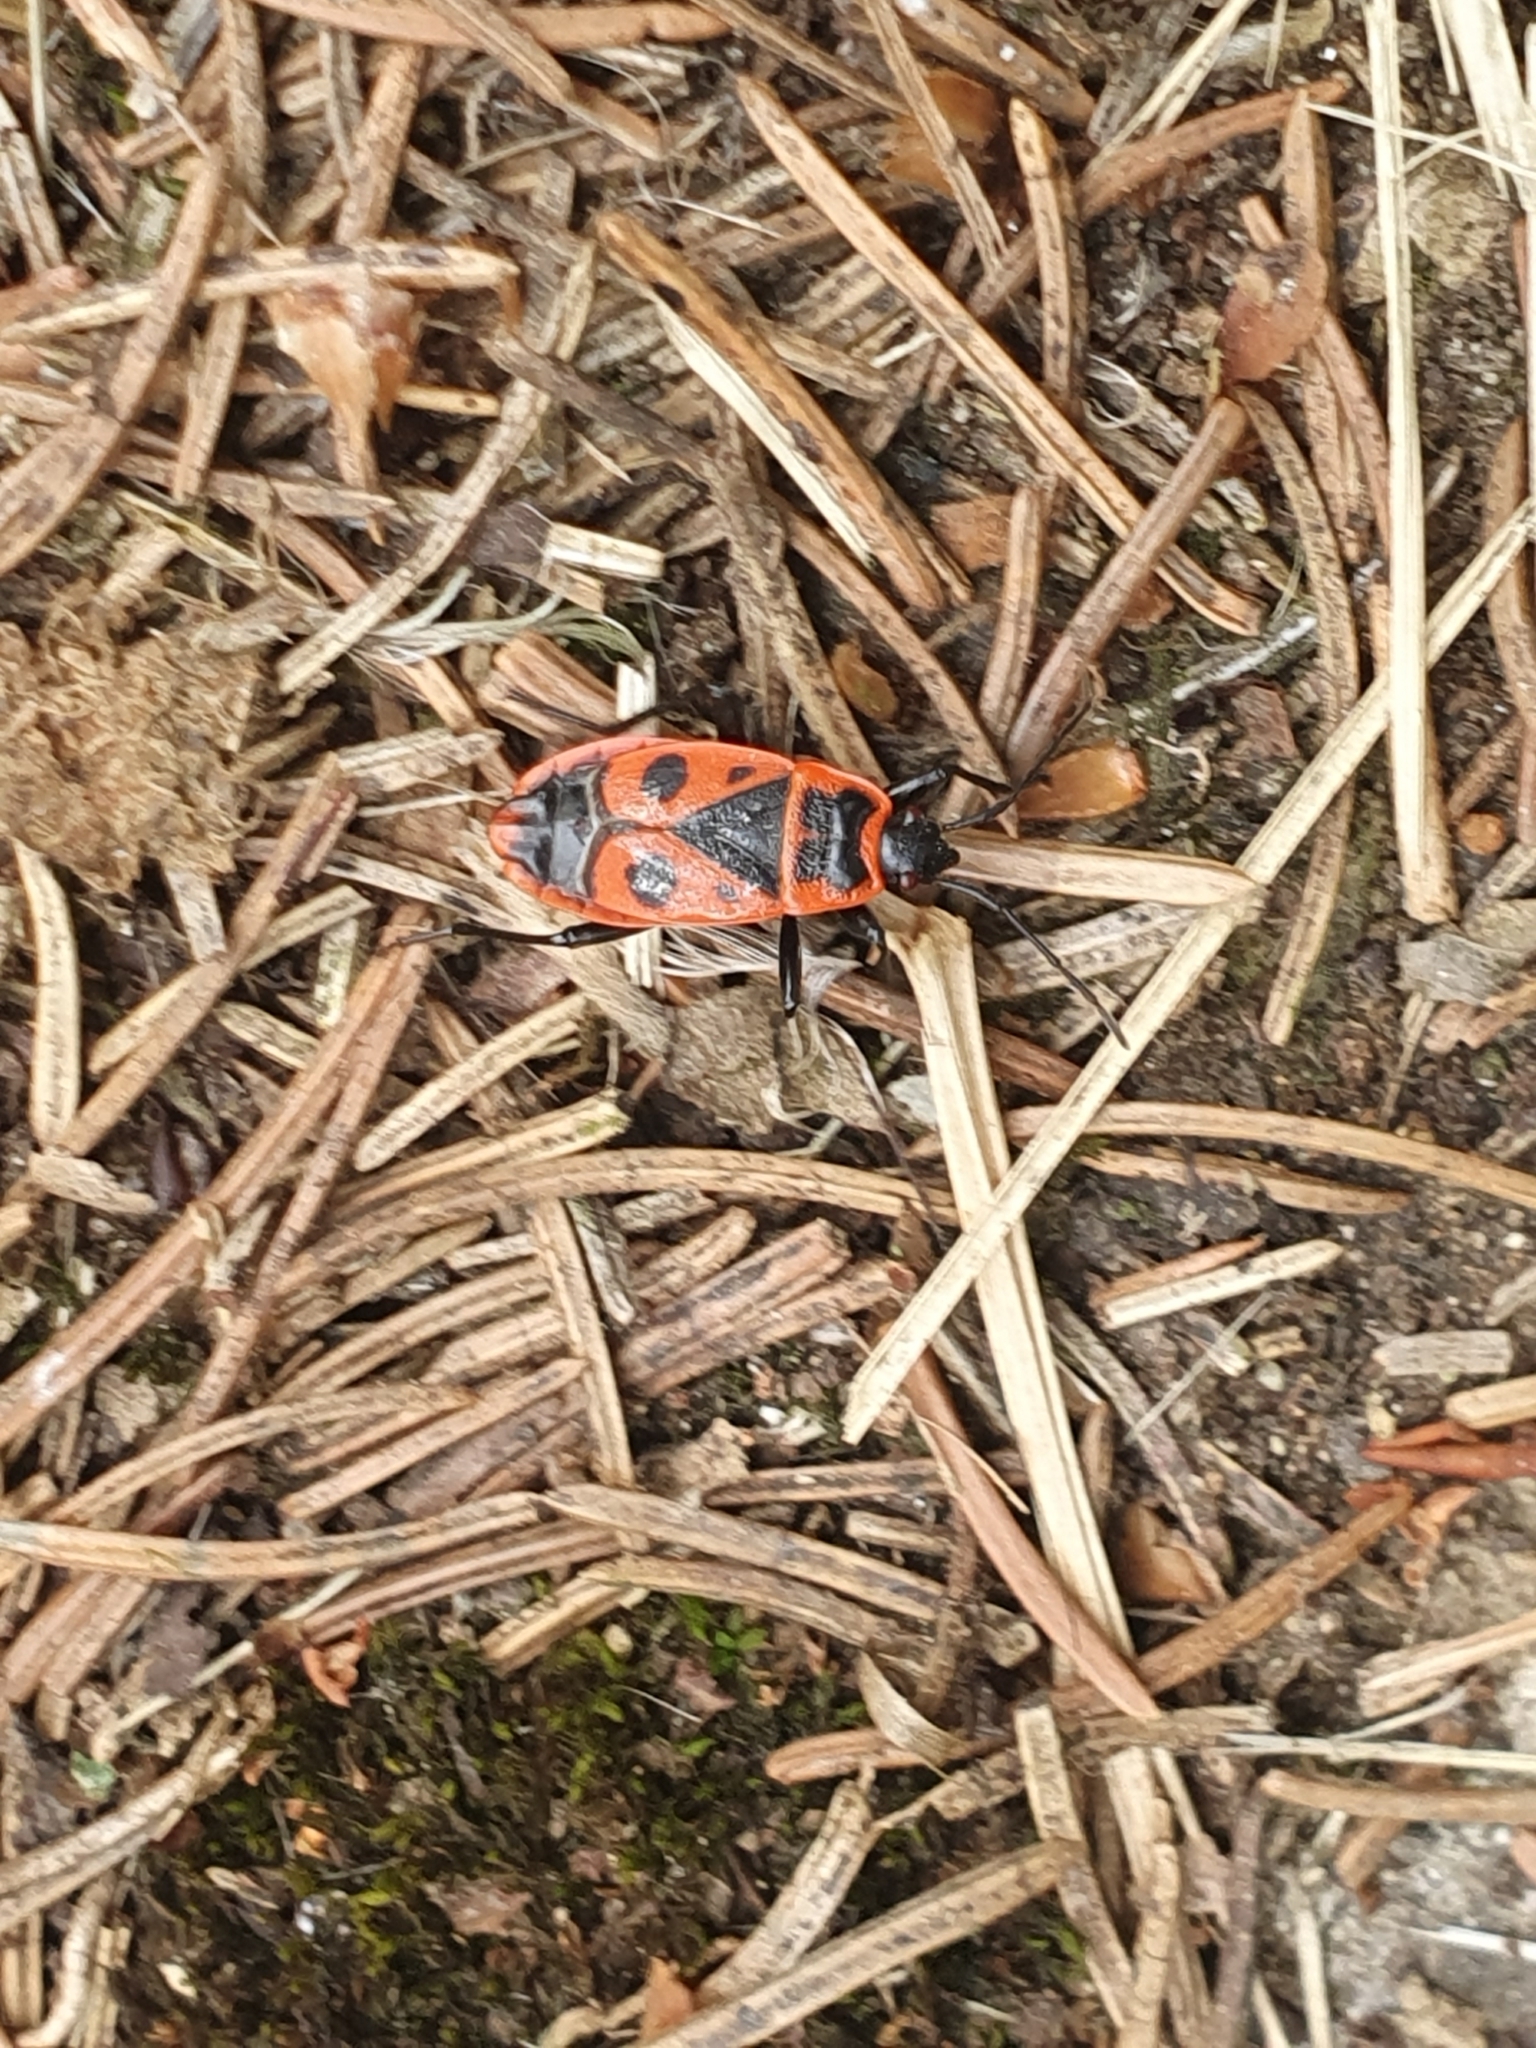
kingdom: Animalia
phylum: Arthropoda
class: Insecta
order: Hemiptera
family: Pyrrhocoridae
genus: Pyrrhocoris
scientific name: Pyrrhocoris apterus
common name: Firebug
